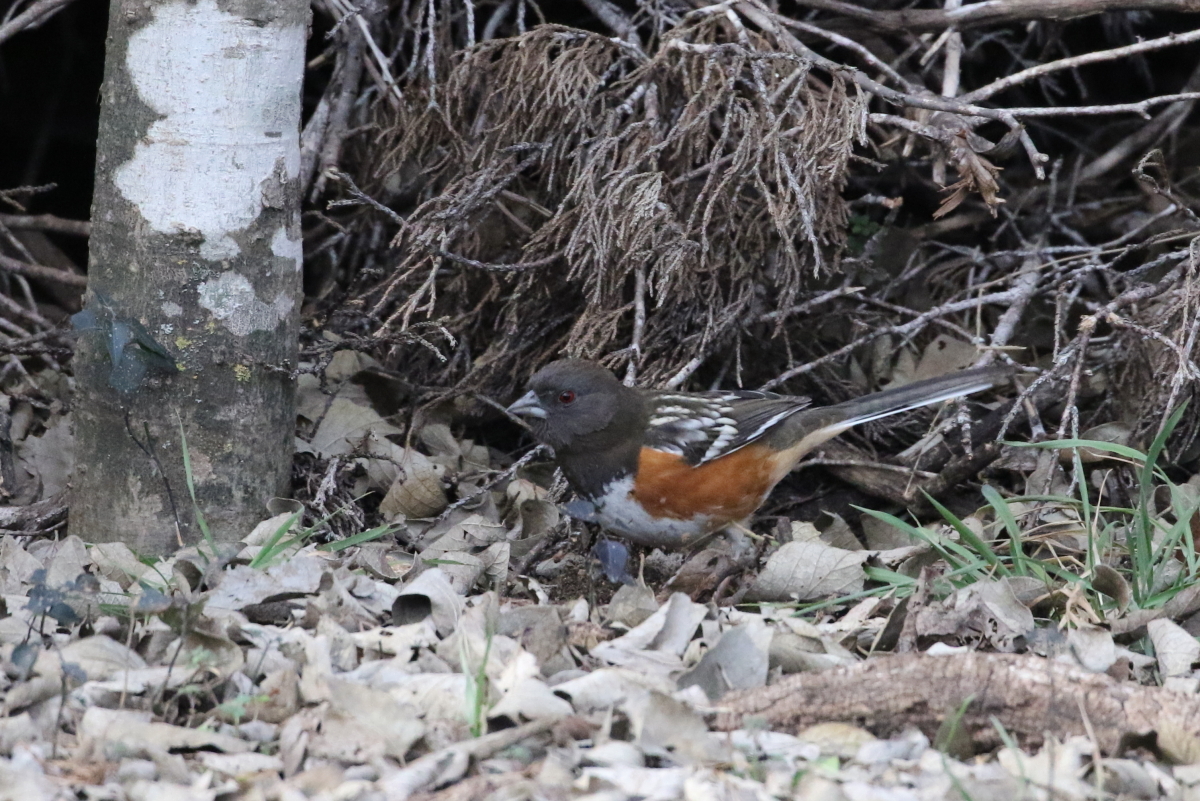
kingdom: Animalia
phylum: Chordata
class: Aves
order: Passeriformes
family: Passerellidae
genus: Pipilo
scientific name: Pipilo maculatus
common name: Spotted towhee
